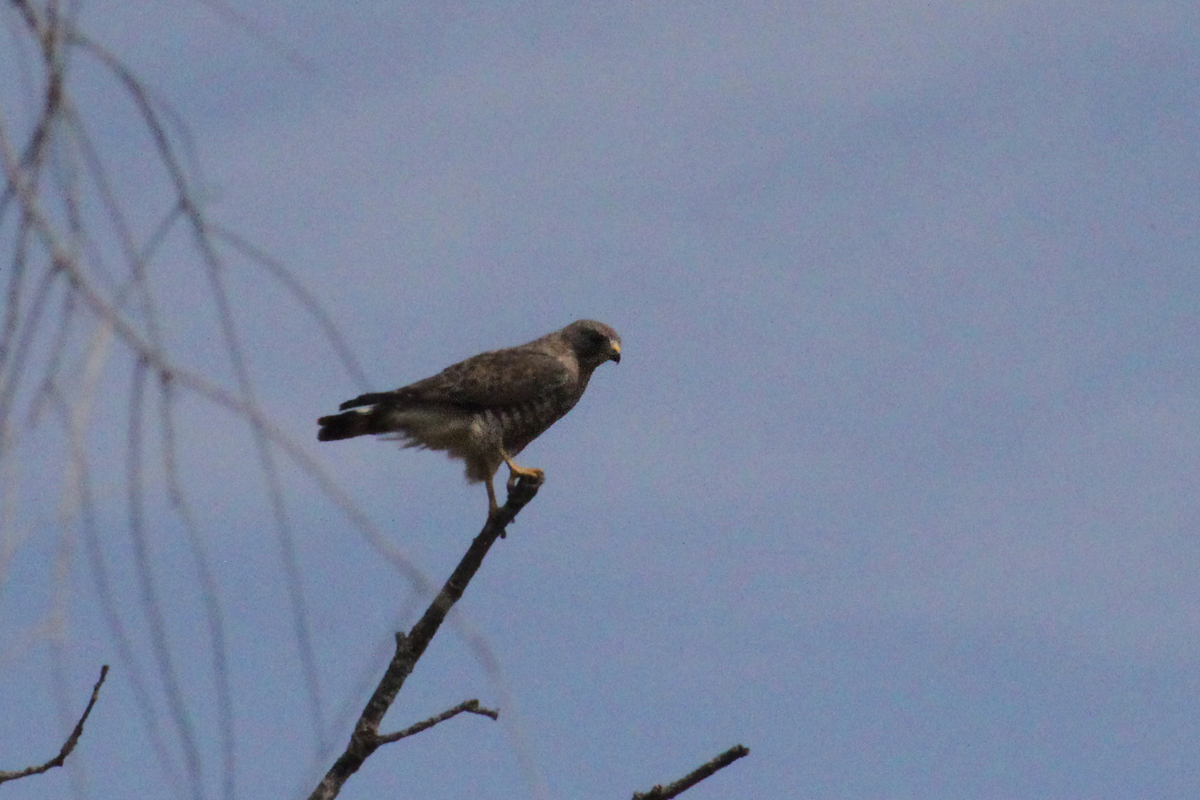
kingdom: Animalia
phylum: Chordata
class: Aves
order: Accipitriformes
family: Accipitridae
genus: Buteo
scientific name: Buteo platypterus
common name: Broad-winged hawk
